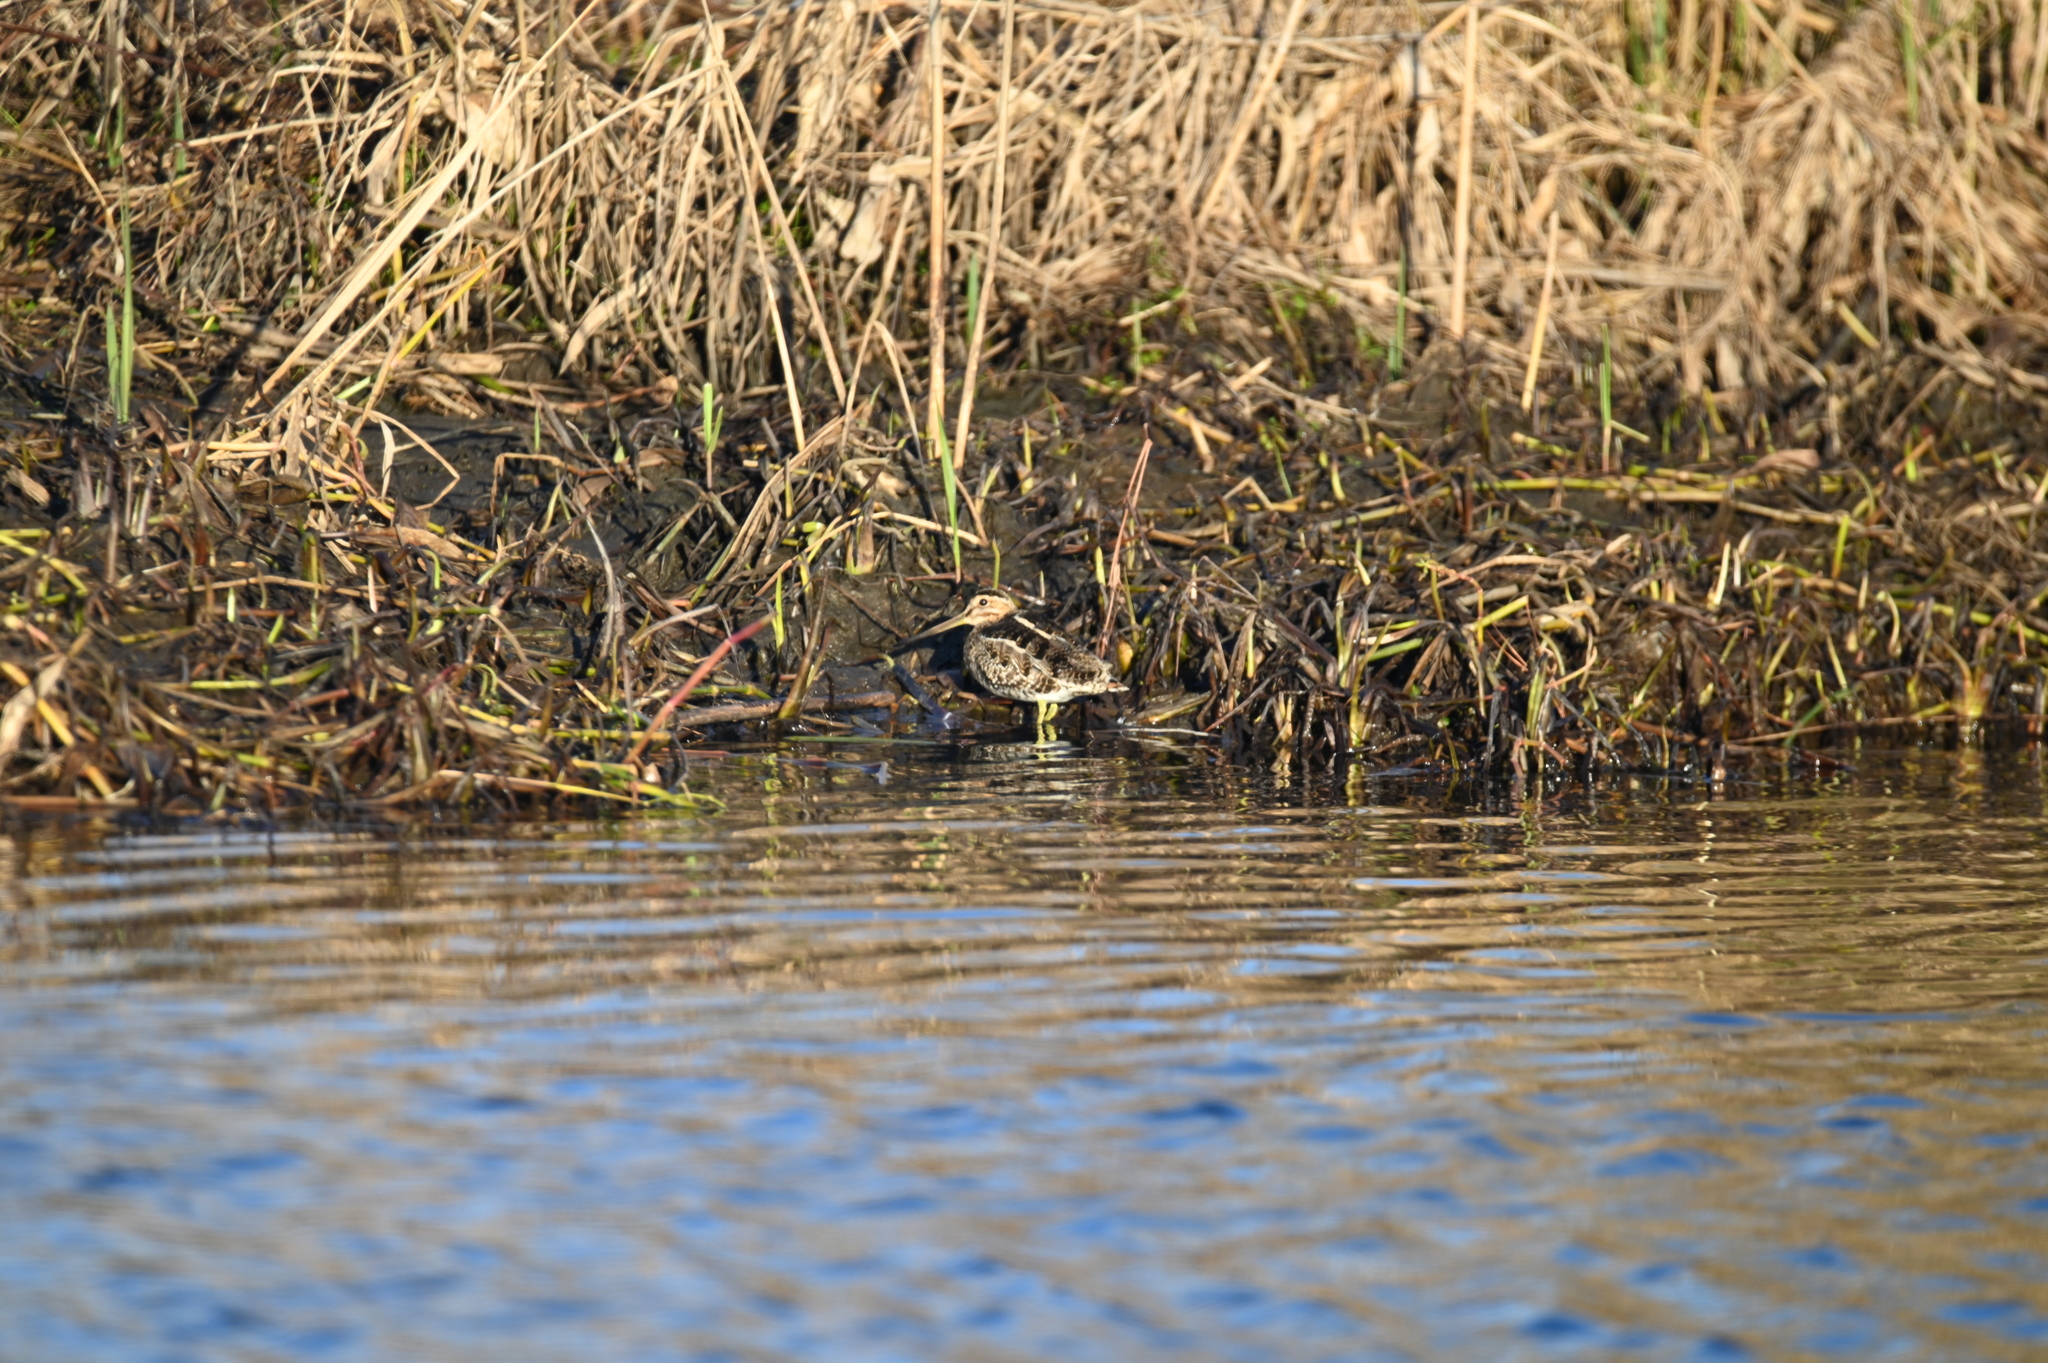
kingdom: Animalia
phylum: Chordata
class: Aves
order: Charadriiformes
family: Scolopacidae
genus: Gallinago
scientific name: Gallinago delicata
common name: Wilson's snipe
